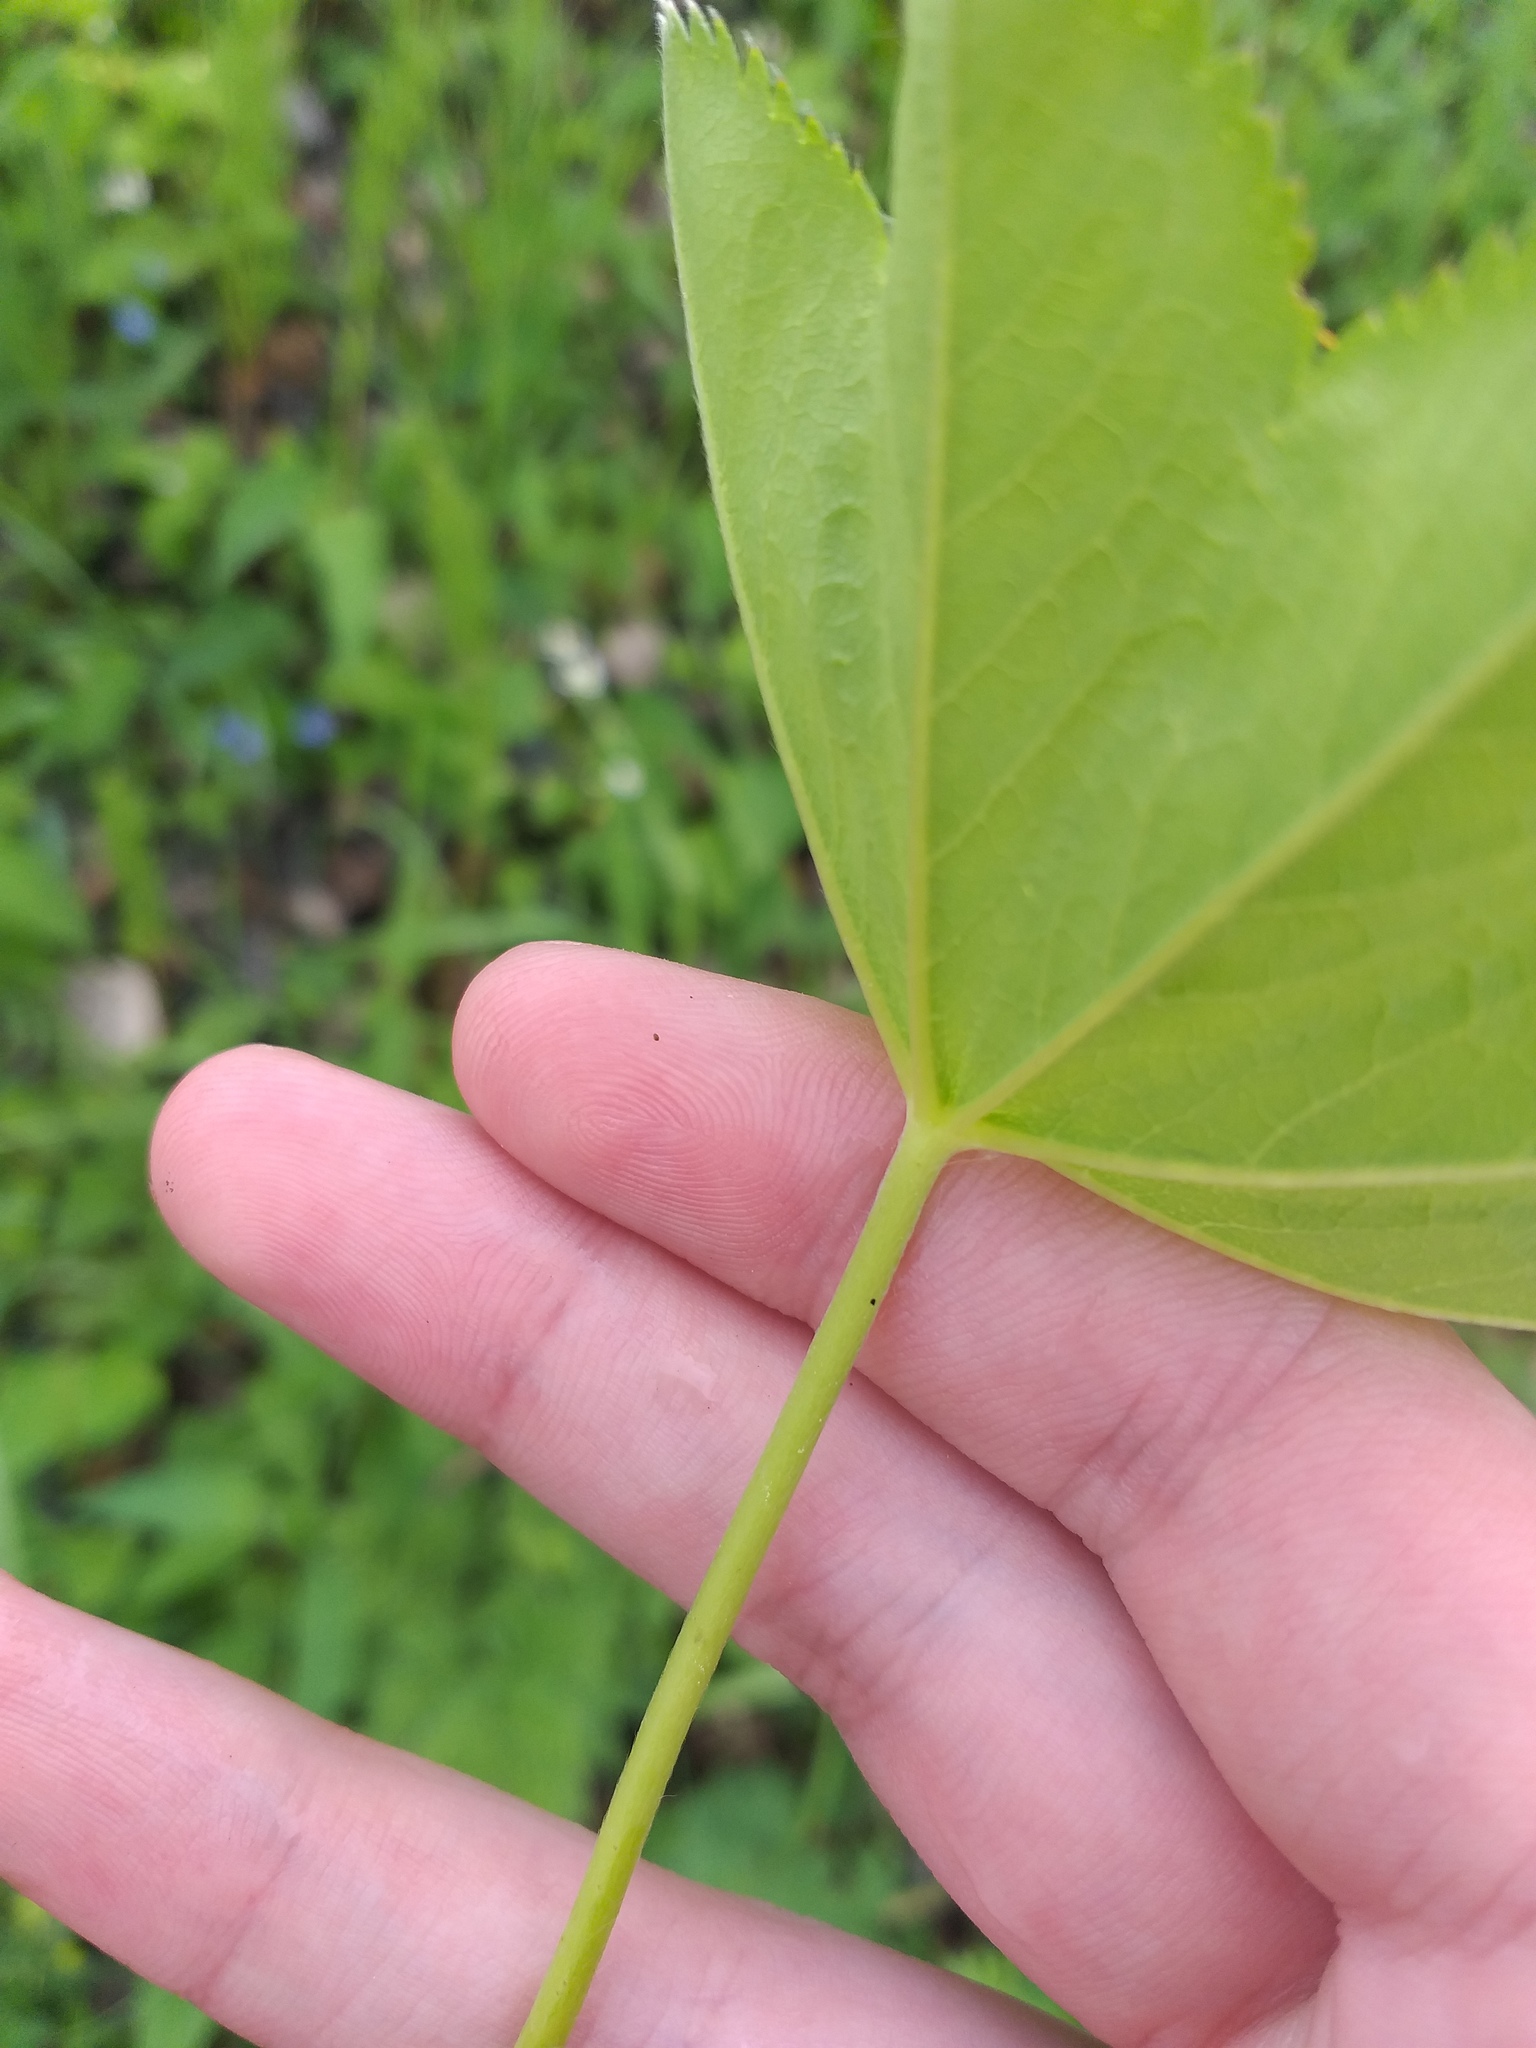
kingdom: Plantae
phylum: Tracheophyta
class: Magnoliopsida
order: Rosales
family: Rosaceae
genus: Alchemilla
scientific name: Alchemilla baltica
